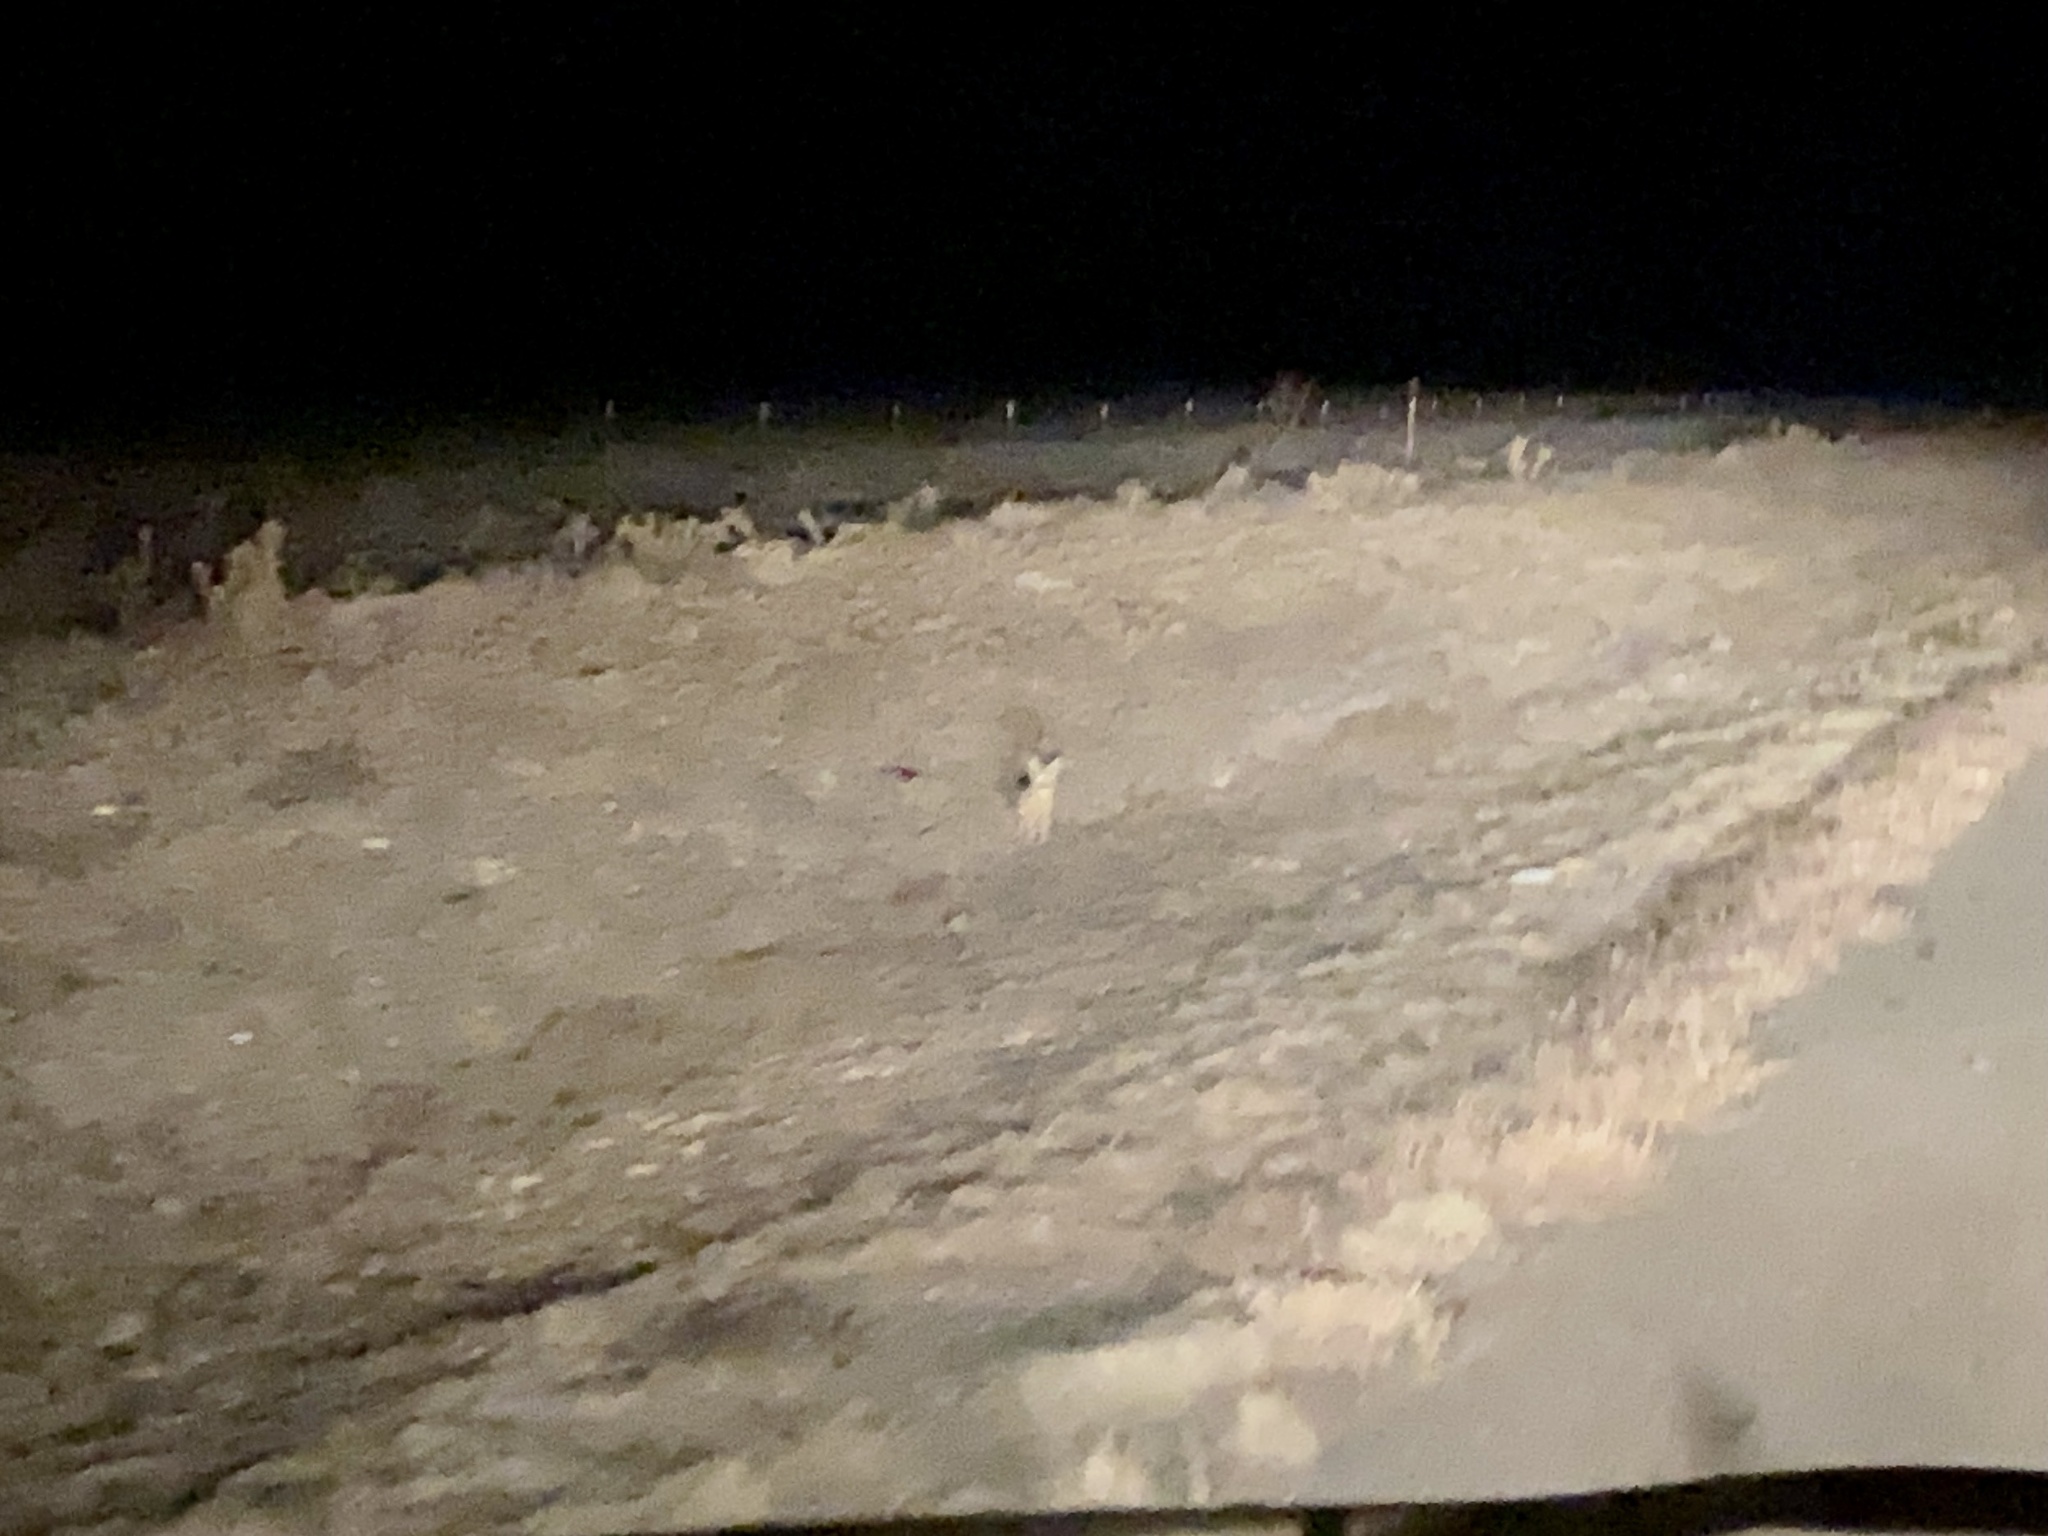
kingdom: Animalia
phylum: Chordata
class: Mammalia
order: Carnivora
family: Canidae
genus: Vulpes
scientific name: Vulpes macrotis
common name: Kit fox
